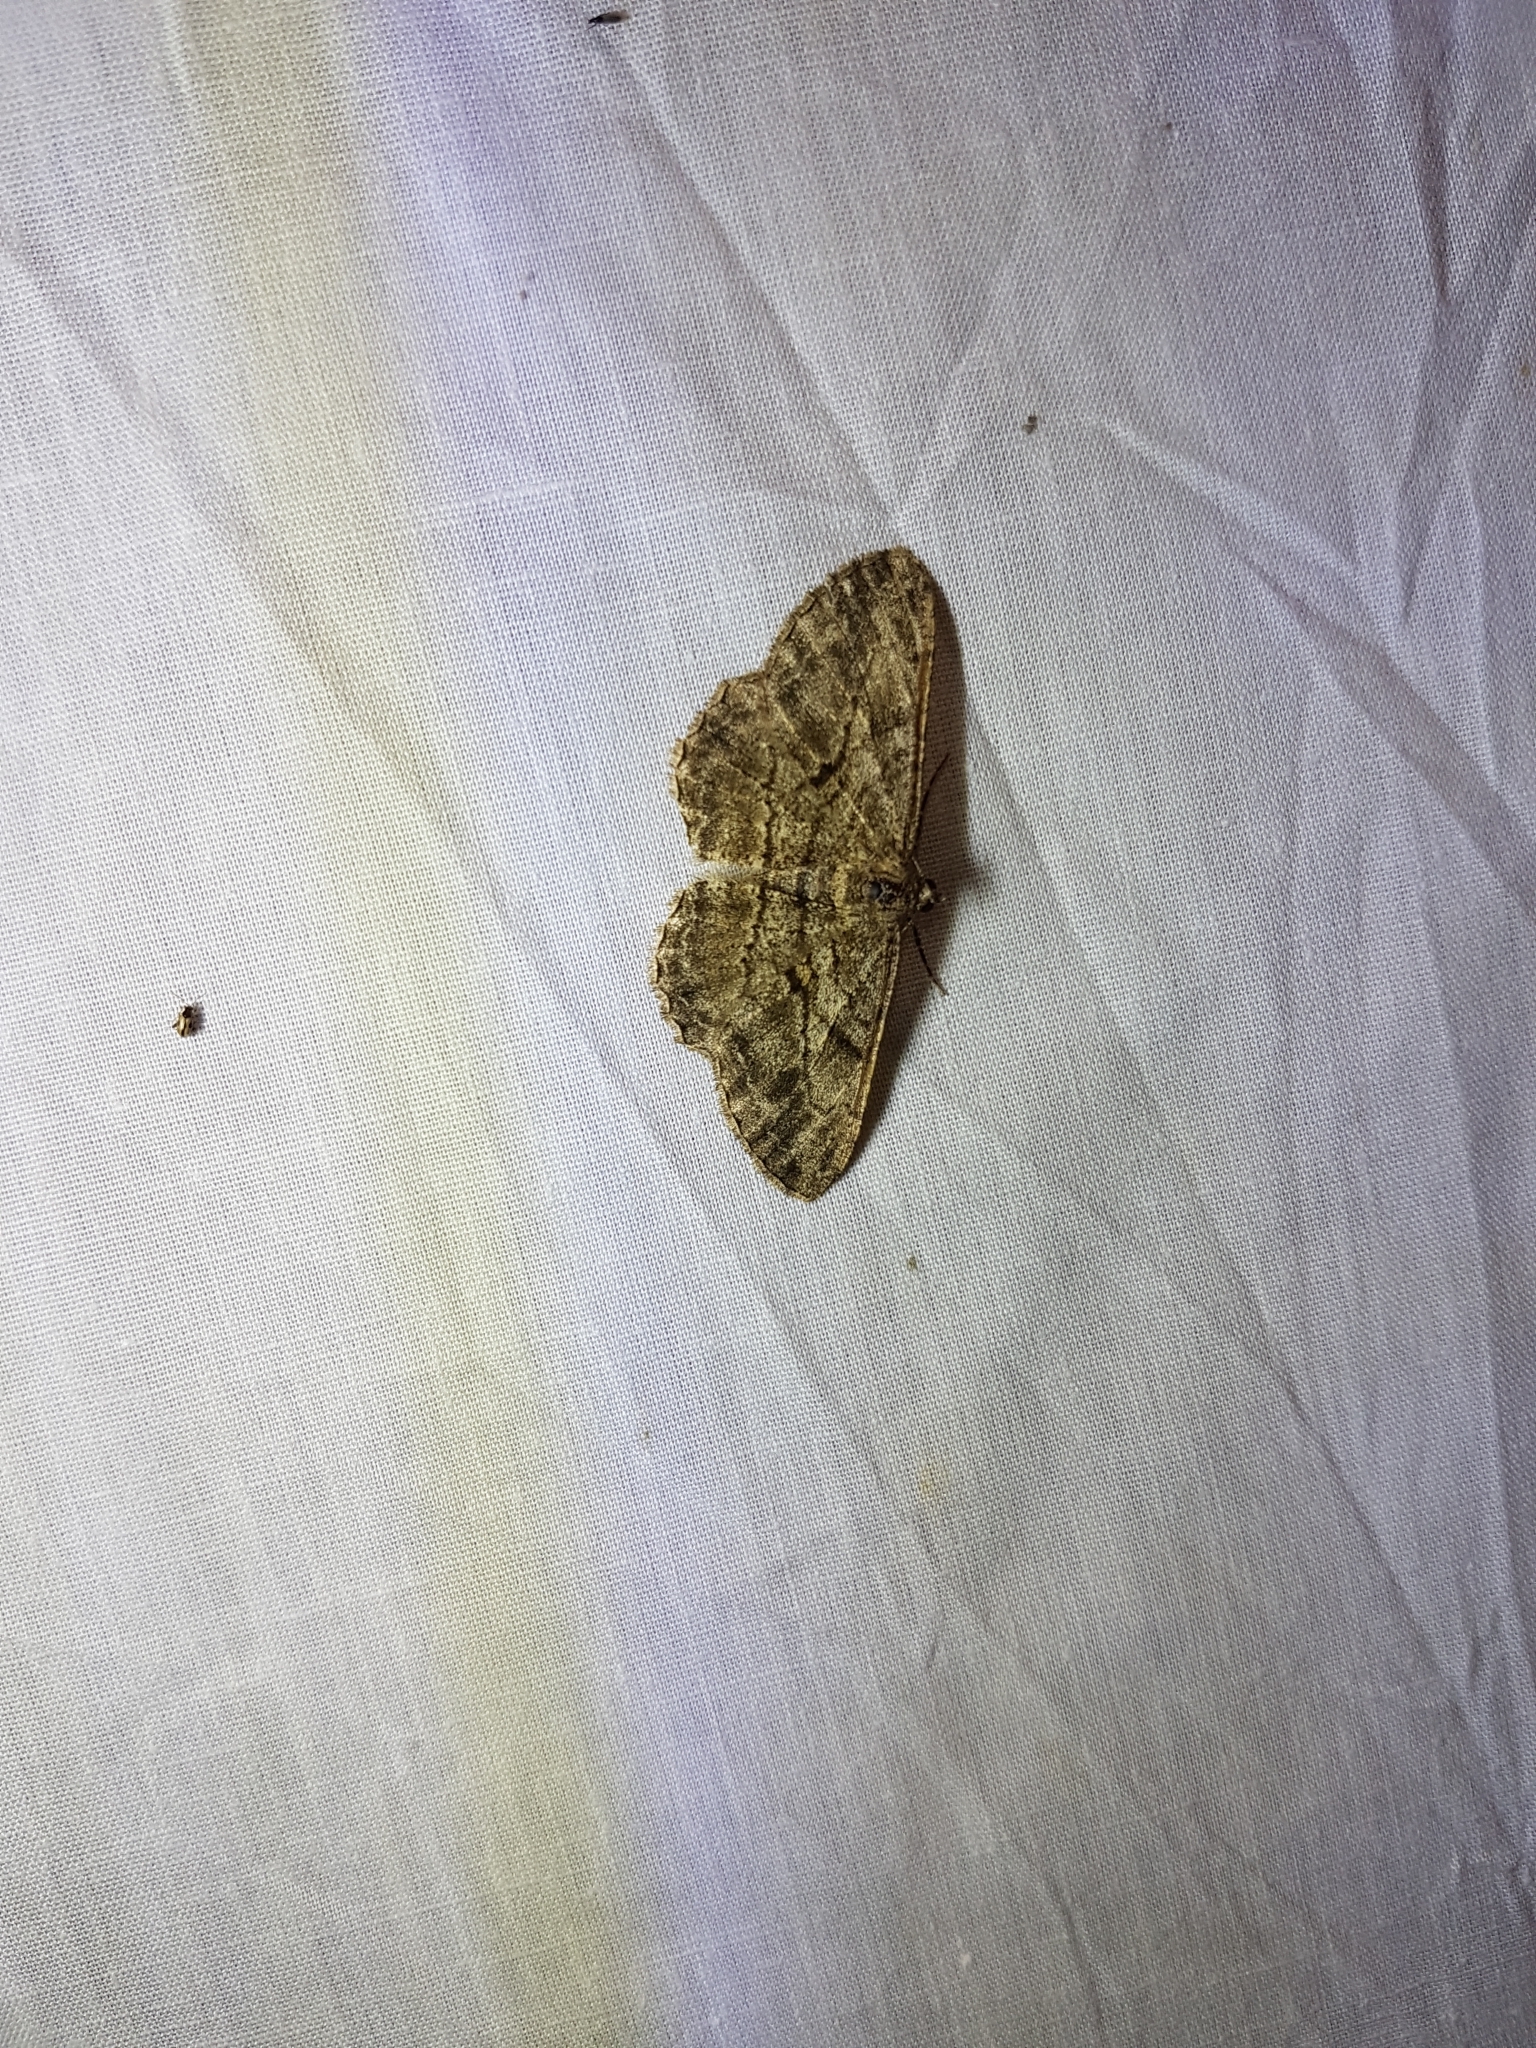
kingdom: Animalia
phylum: Arthropoda
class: Insecta
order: Lepidoptera
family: Geometridae
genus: Peribatodes
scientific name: Peribatodes rhomboidaria
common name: Willow beauty
